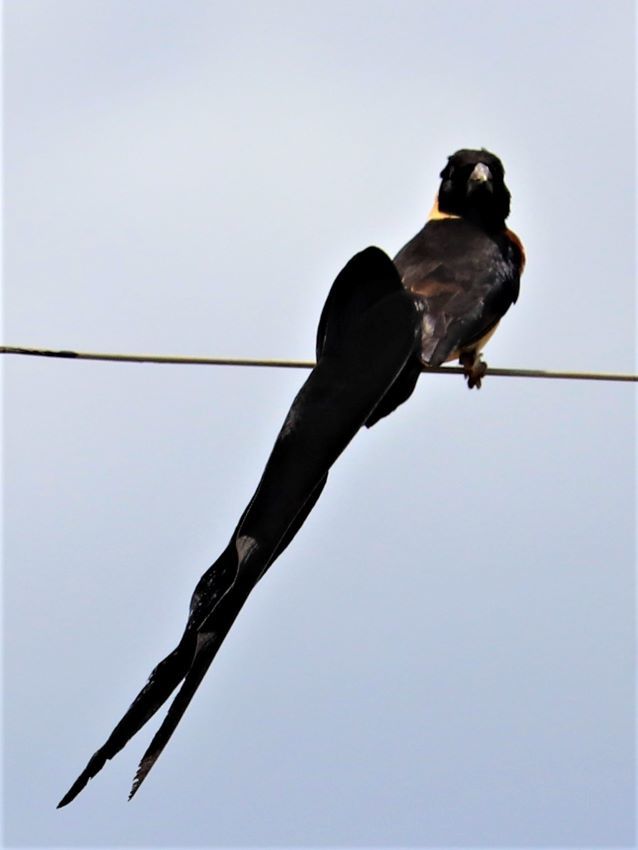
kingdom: Animalia
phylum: Chordata
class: Aves
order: Passeriformes
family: Viduidae
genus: Vidua
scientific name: Vidua paradisaea
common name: Long-tailed paradise whydah
